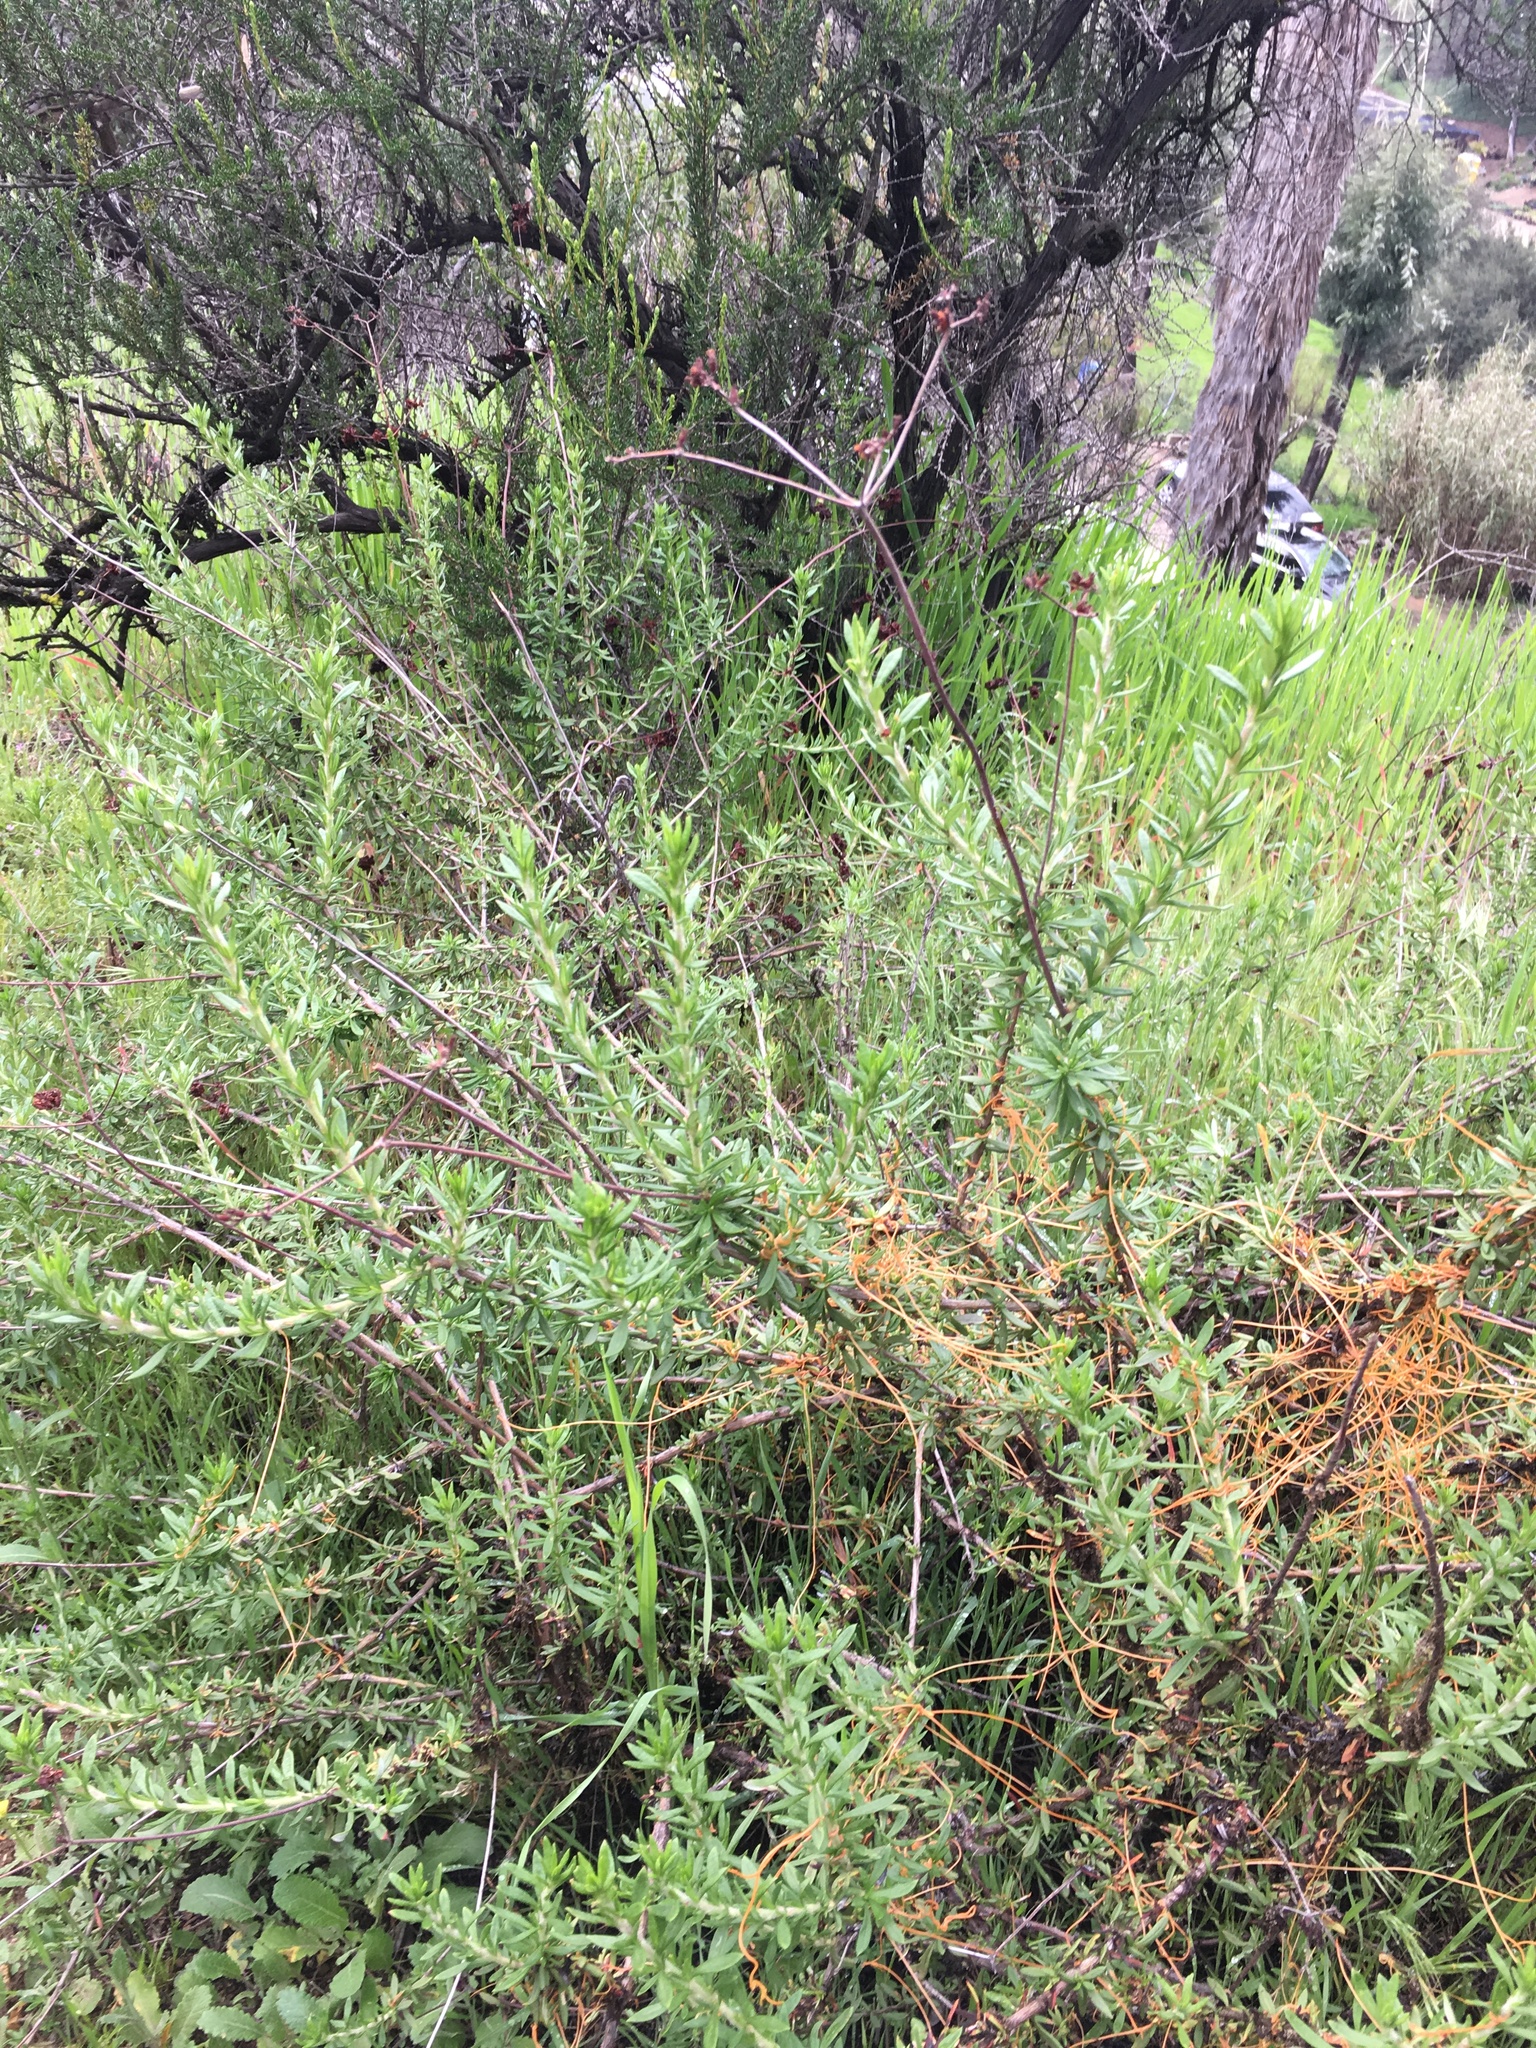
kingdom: Plantae
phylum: Tracheophyta
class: Magnoliopsida
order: Caryophyllales
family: Polygonaceae
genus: Eriogonum
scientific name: Eriogonum fasciculatum
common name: California wild buckwheat
